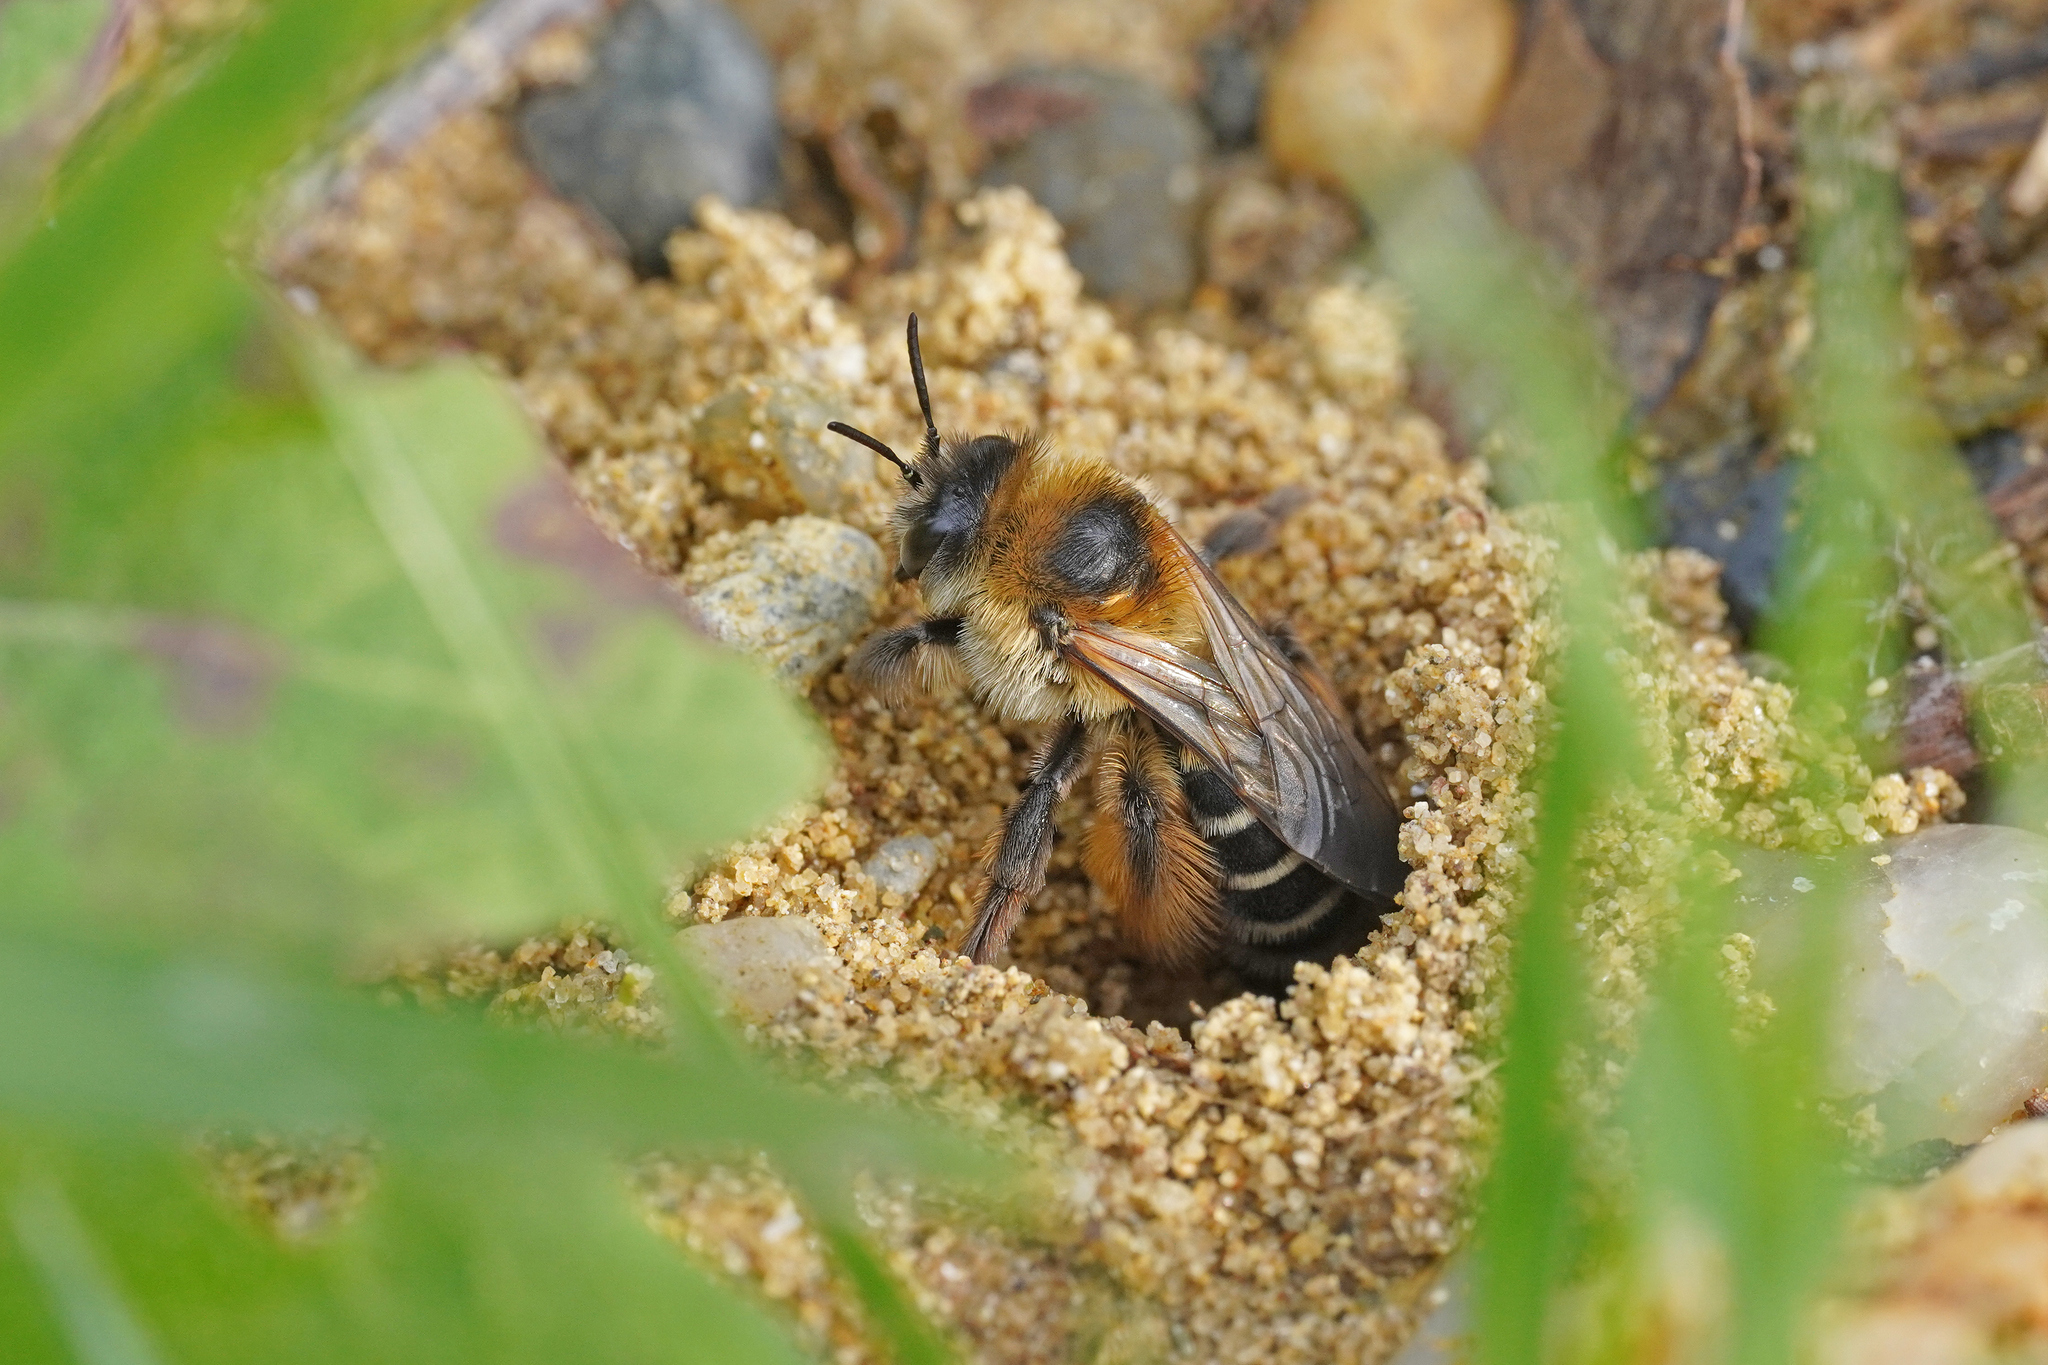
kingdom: Animalia
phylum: Arthropoda
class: Insecta
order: Hymenoptera
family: Melittidae
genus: Dasypoda
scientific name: Dasypoda hirtipes
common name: Pantaloon bee
